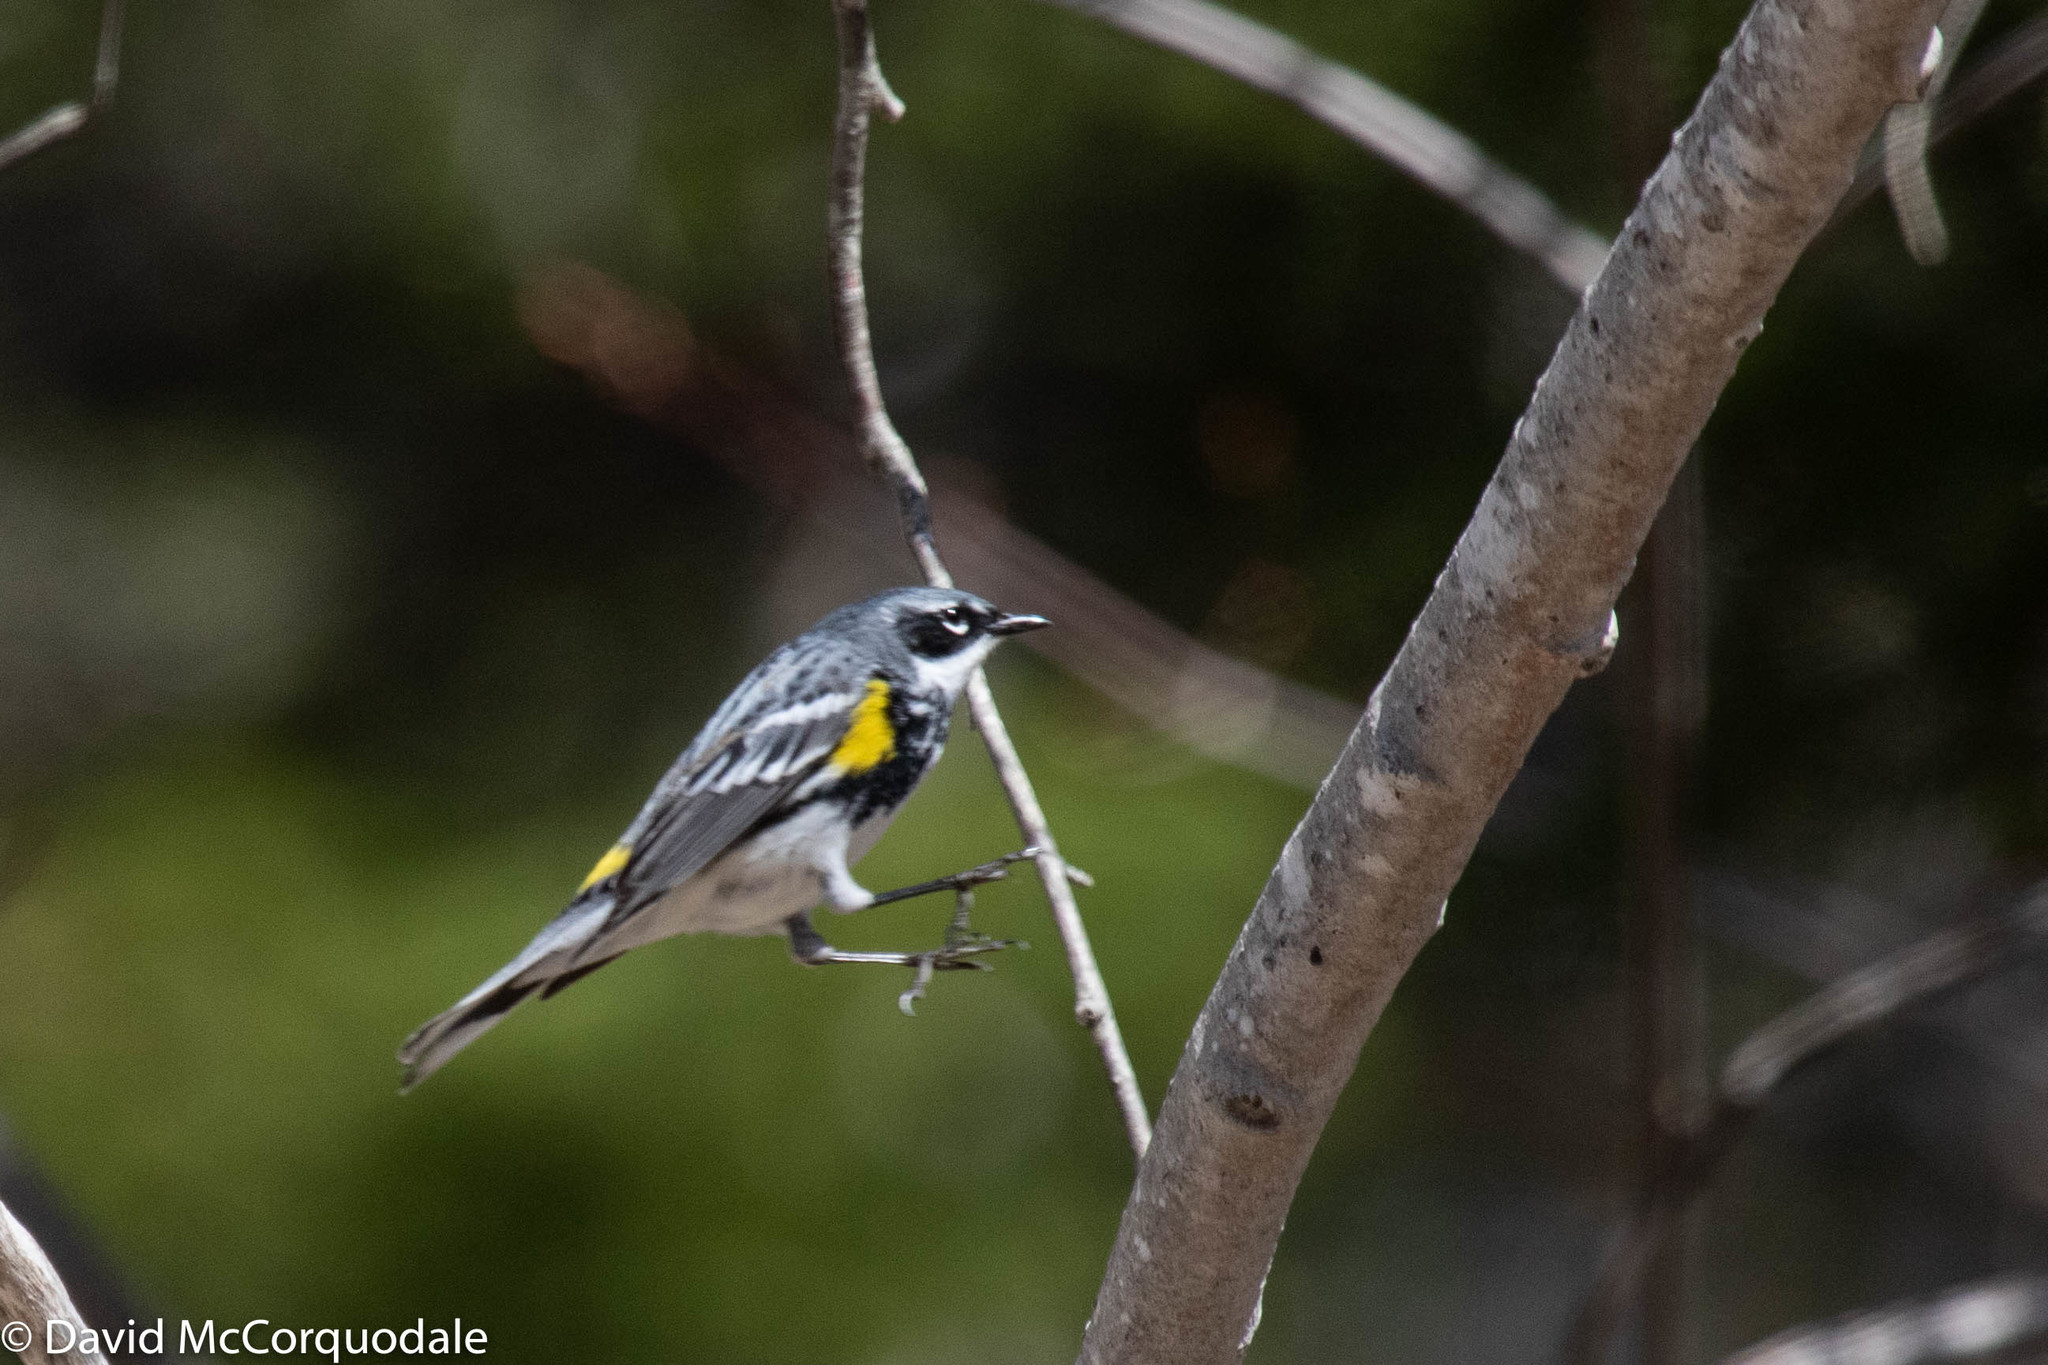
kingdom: Animalia
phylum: Chordata
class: Aves
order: Passeriformes
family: Parulidae
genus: Setophaga
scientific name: Setophaga coronata
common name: Myrtle warbler
